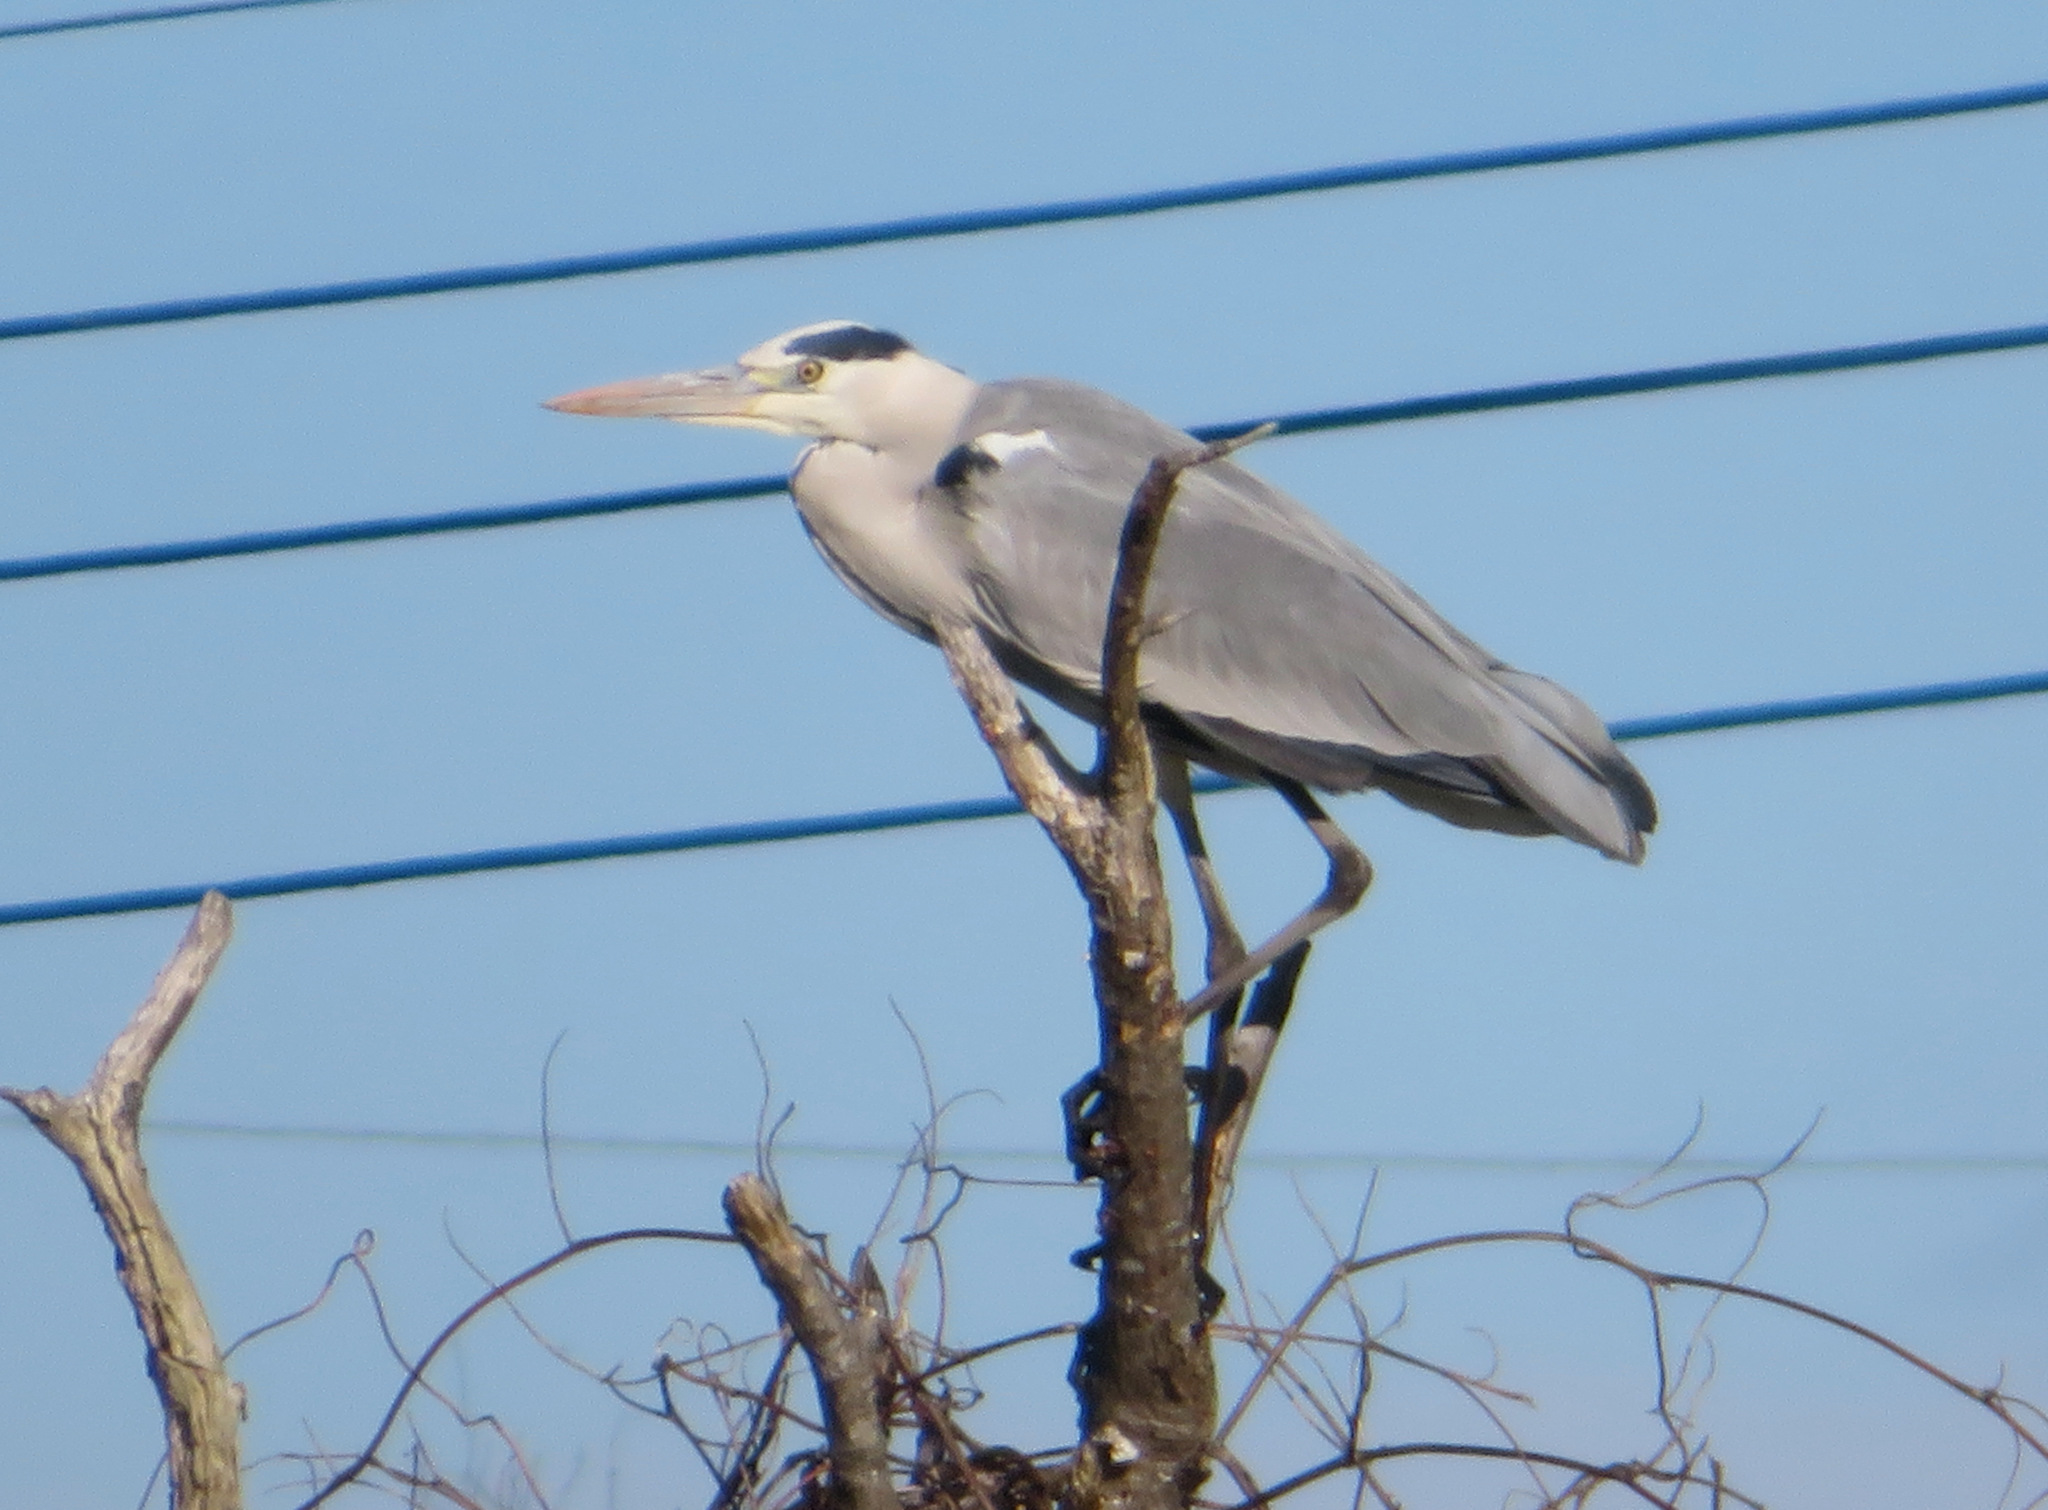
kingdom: Animalia
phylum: Chordata
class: Aves
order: Pelecaniformes
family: Ardeidae
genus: Ardea
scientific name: Ardea cinerea
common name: Grey heron
